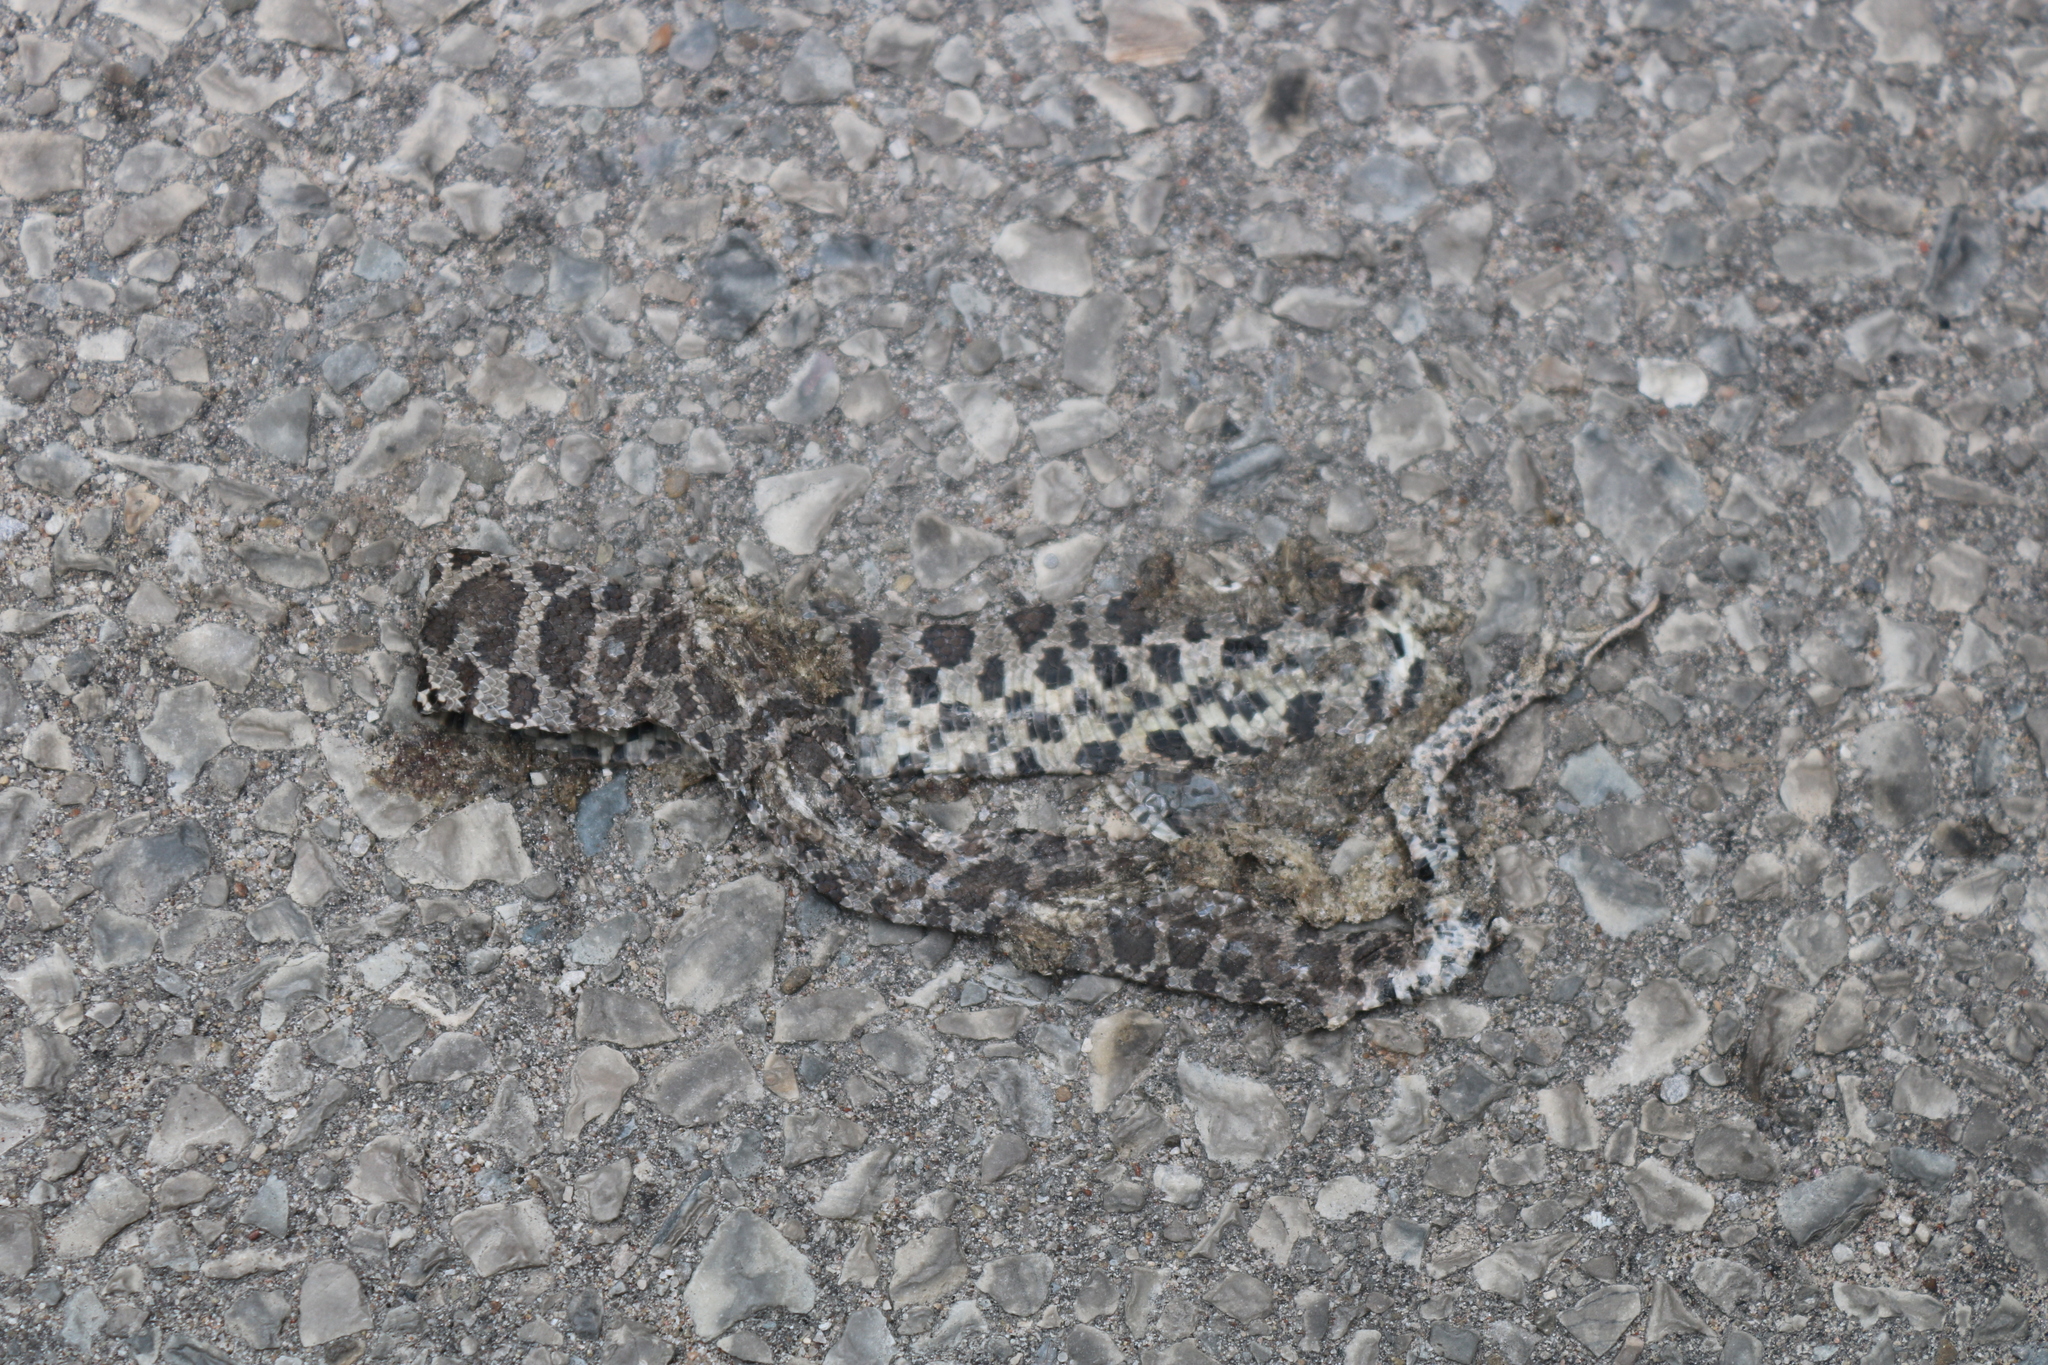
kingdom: Animalia
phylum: Chordata
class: Squamata
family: Colubridae
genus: Lampropeltis
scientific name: Lampropeltis triangulum
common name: Eastern milksnake
